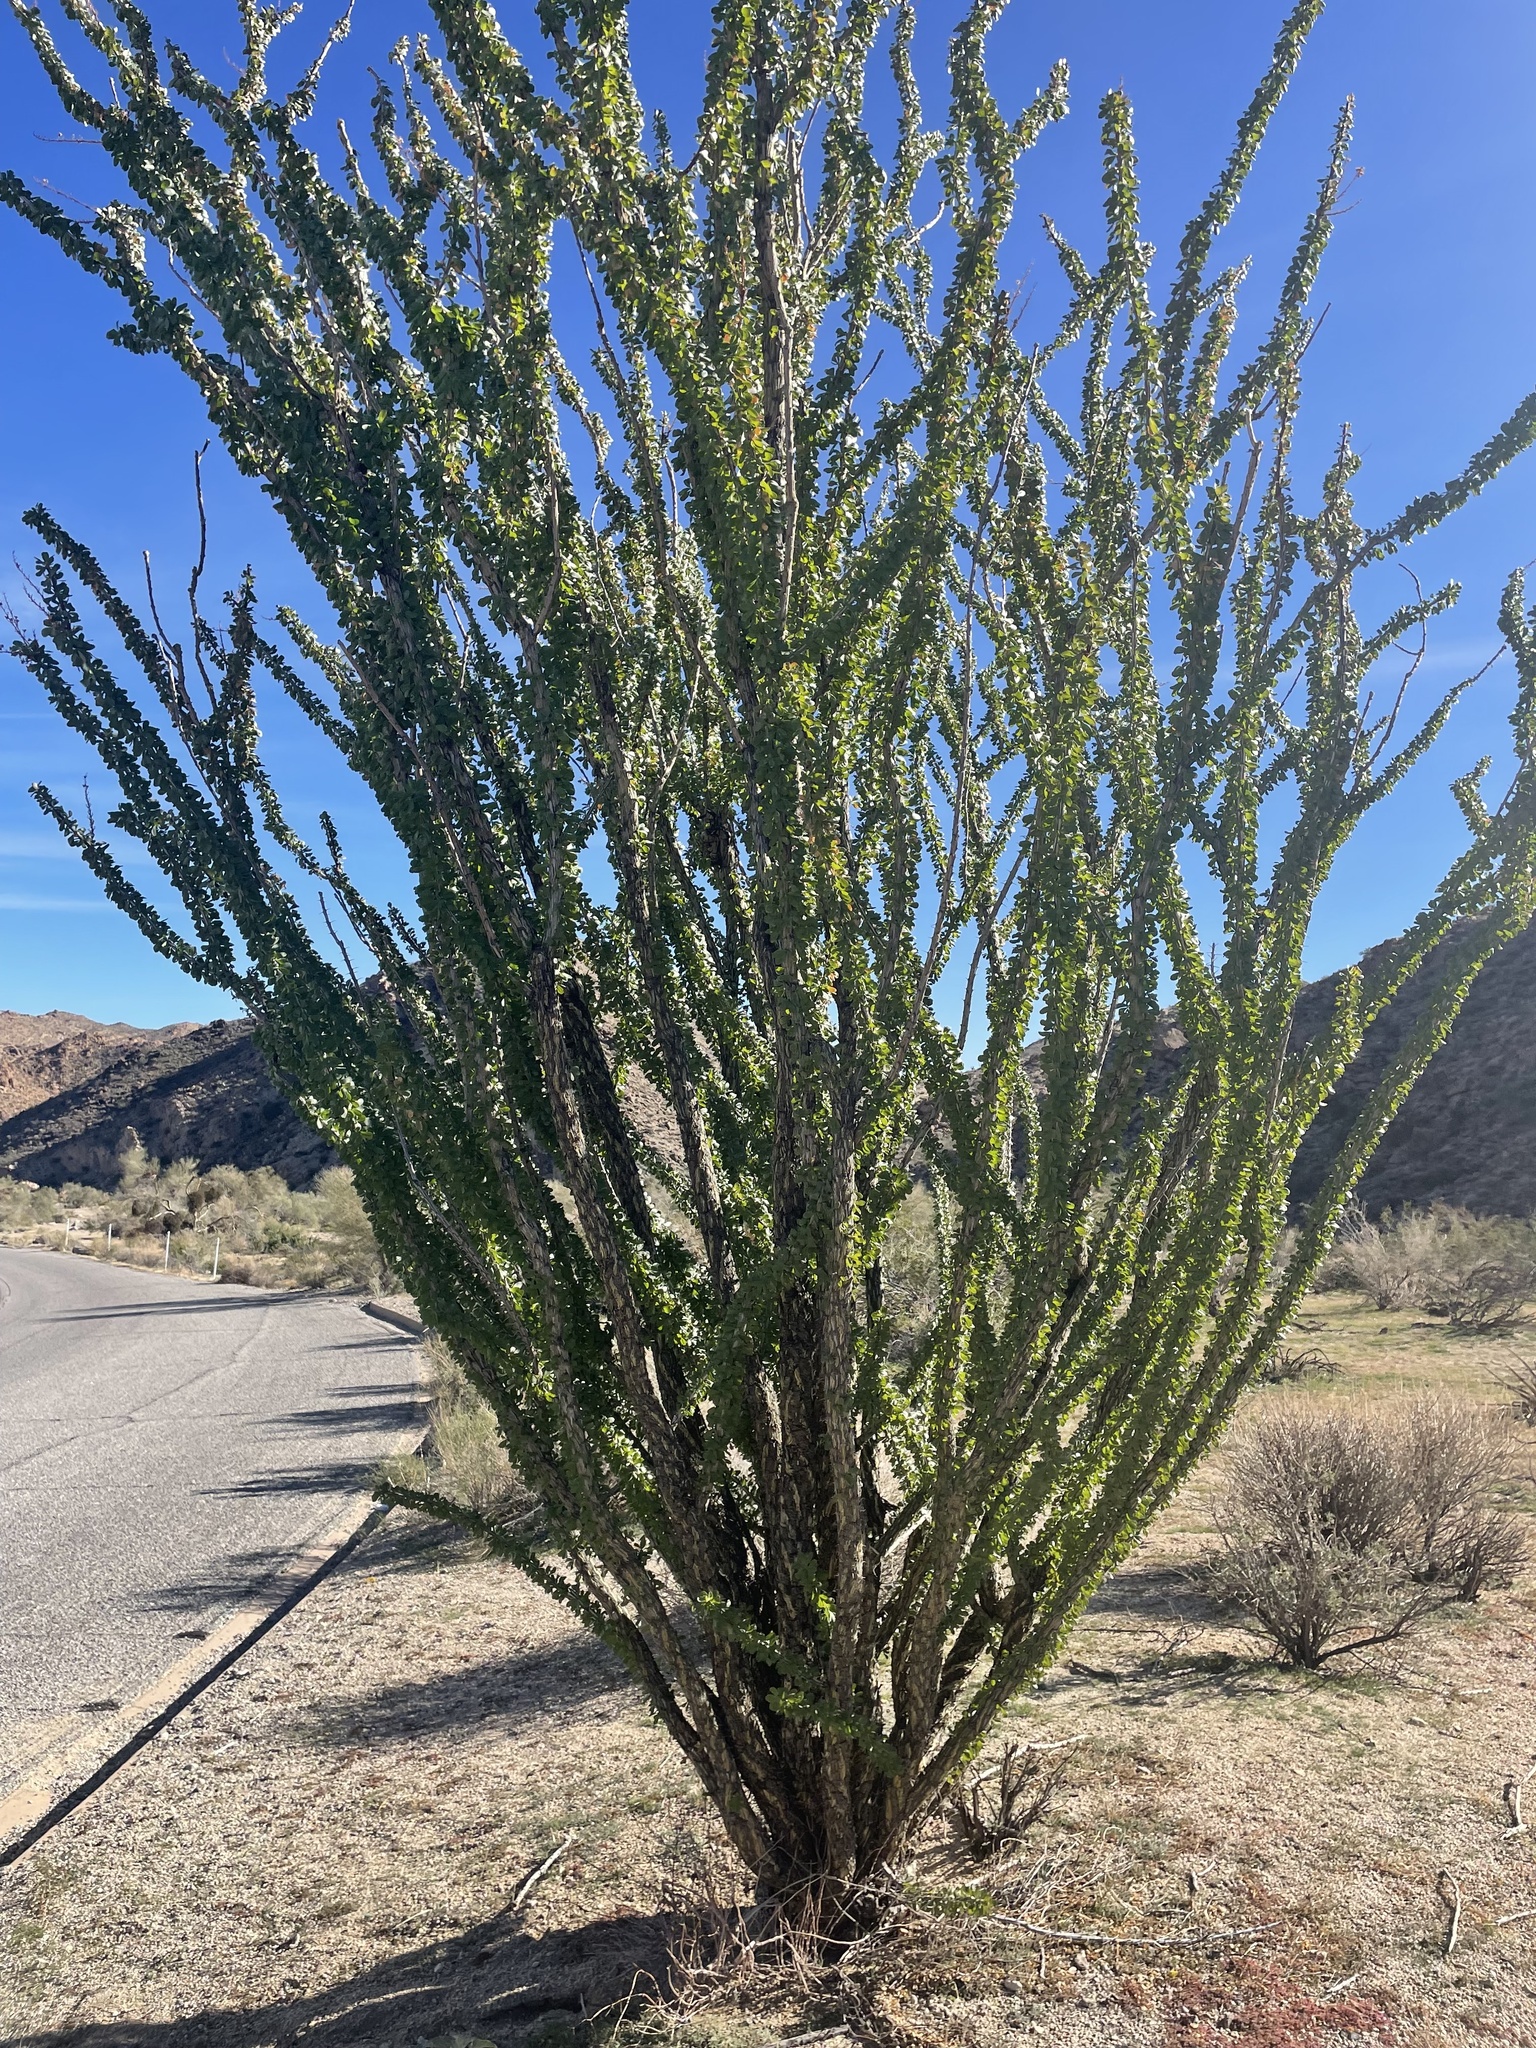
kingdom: Plantae
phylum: Tracheophyta
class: Magnoliopsida
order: Ericales
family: Fouquieriaceae
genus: Fouquieria
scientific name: Fouquieria splendens
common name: Vine-cactus
